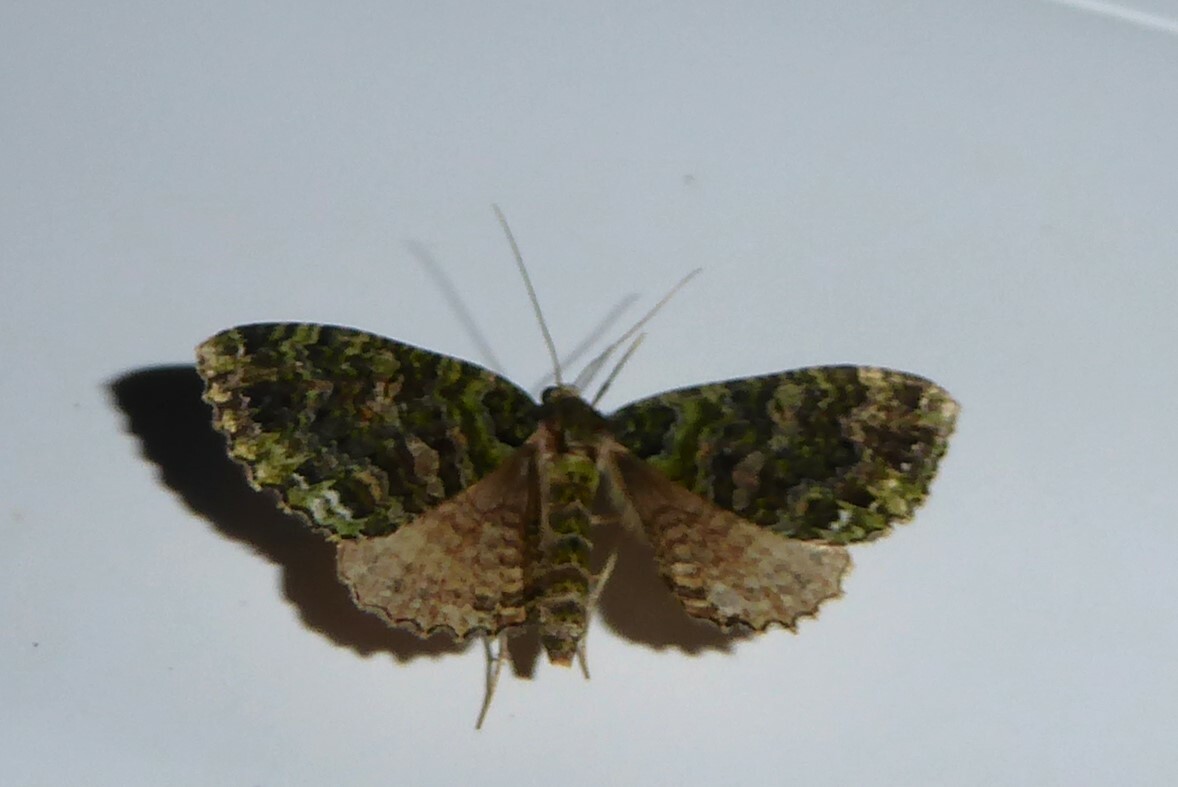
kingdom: Animalia
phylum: Arthropoda
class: Insecta
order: Lepidoptera
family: Geometridae
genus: Austrocidaria
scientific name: Austrocidaria similata
